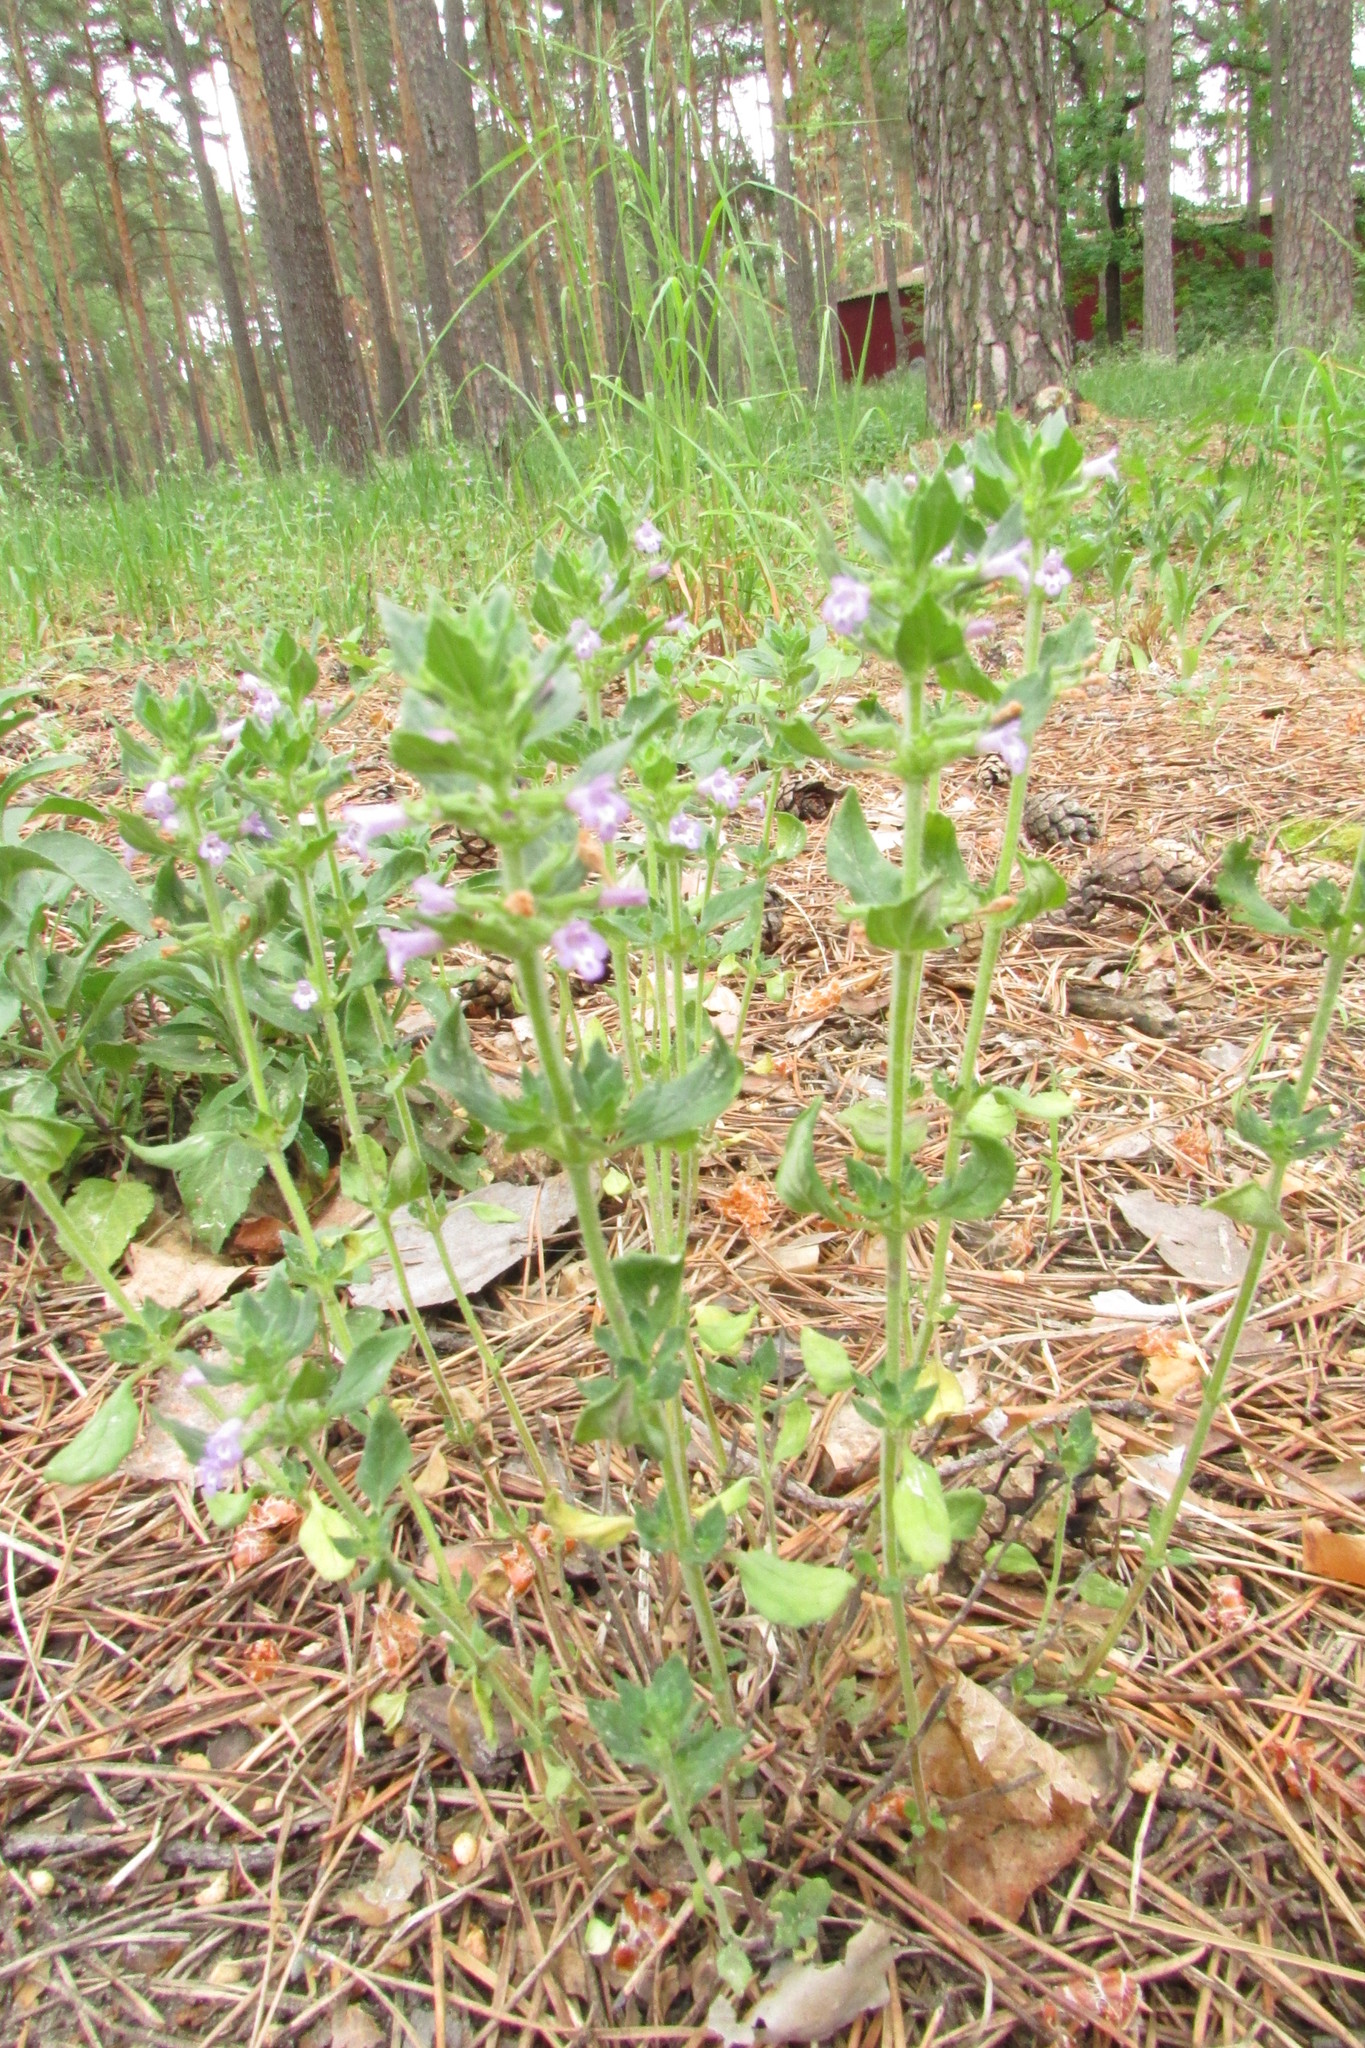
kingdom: Plantae
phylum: Tracheophyta
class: Magnoliopsida
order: Lamiales
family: Lamiaceae
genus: Clinopodium
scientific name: Clinopodium acinos
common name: Basil thyme
